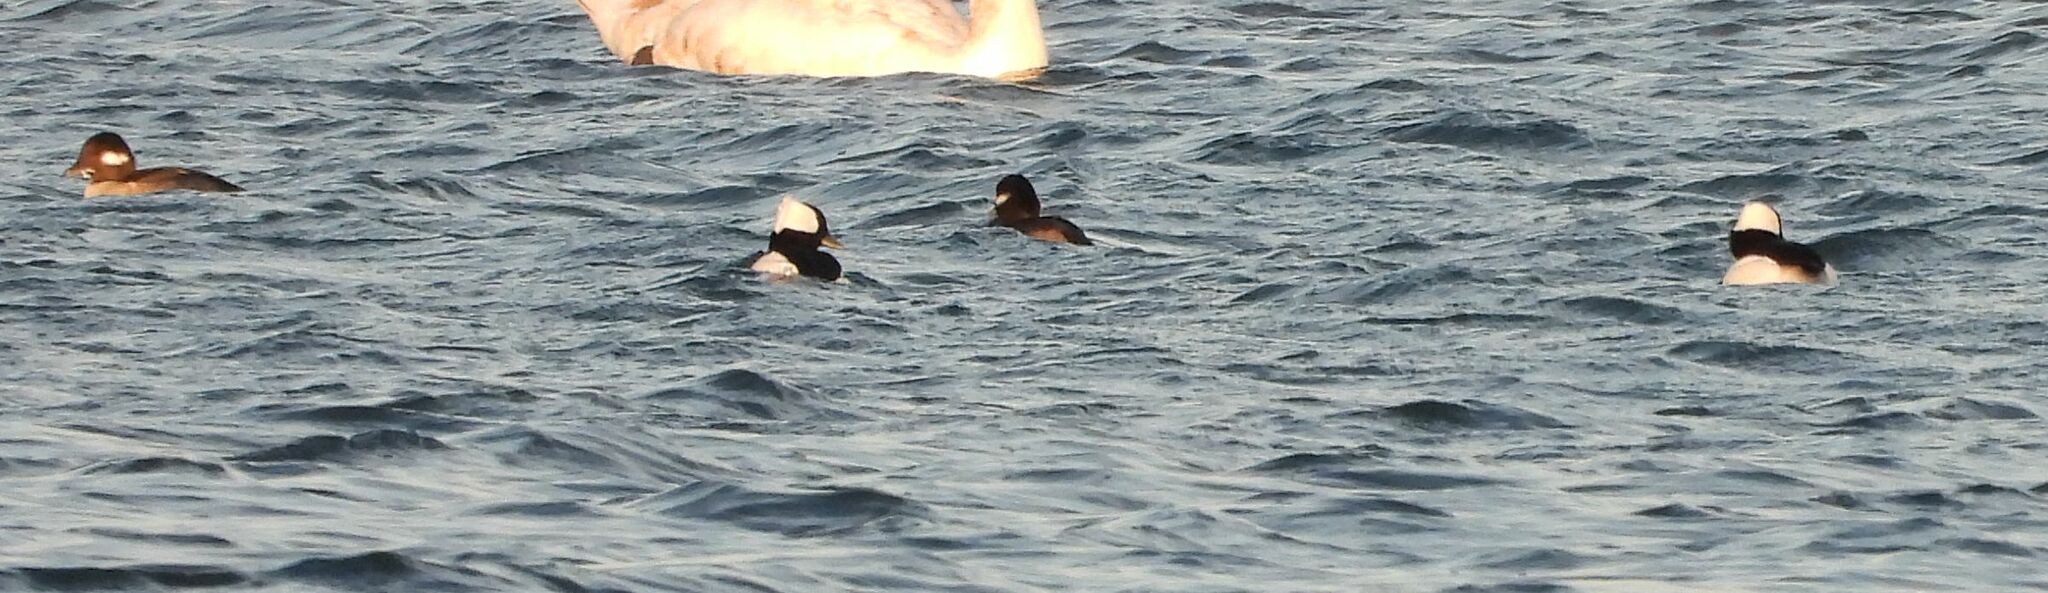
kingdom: Animalia
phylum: Chordata
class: Aves
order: Anseriformes
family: Anatidae
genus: Bucephala
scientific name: Bucephala albeola
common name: Bufflehead
